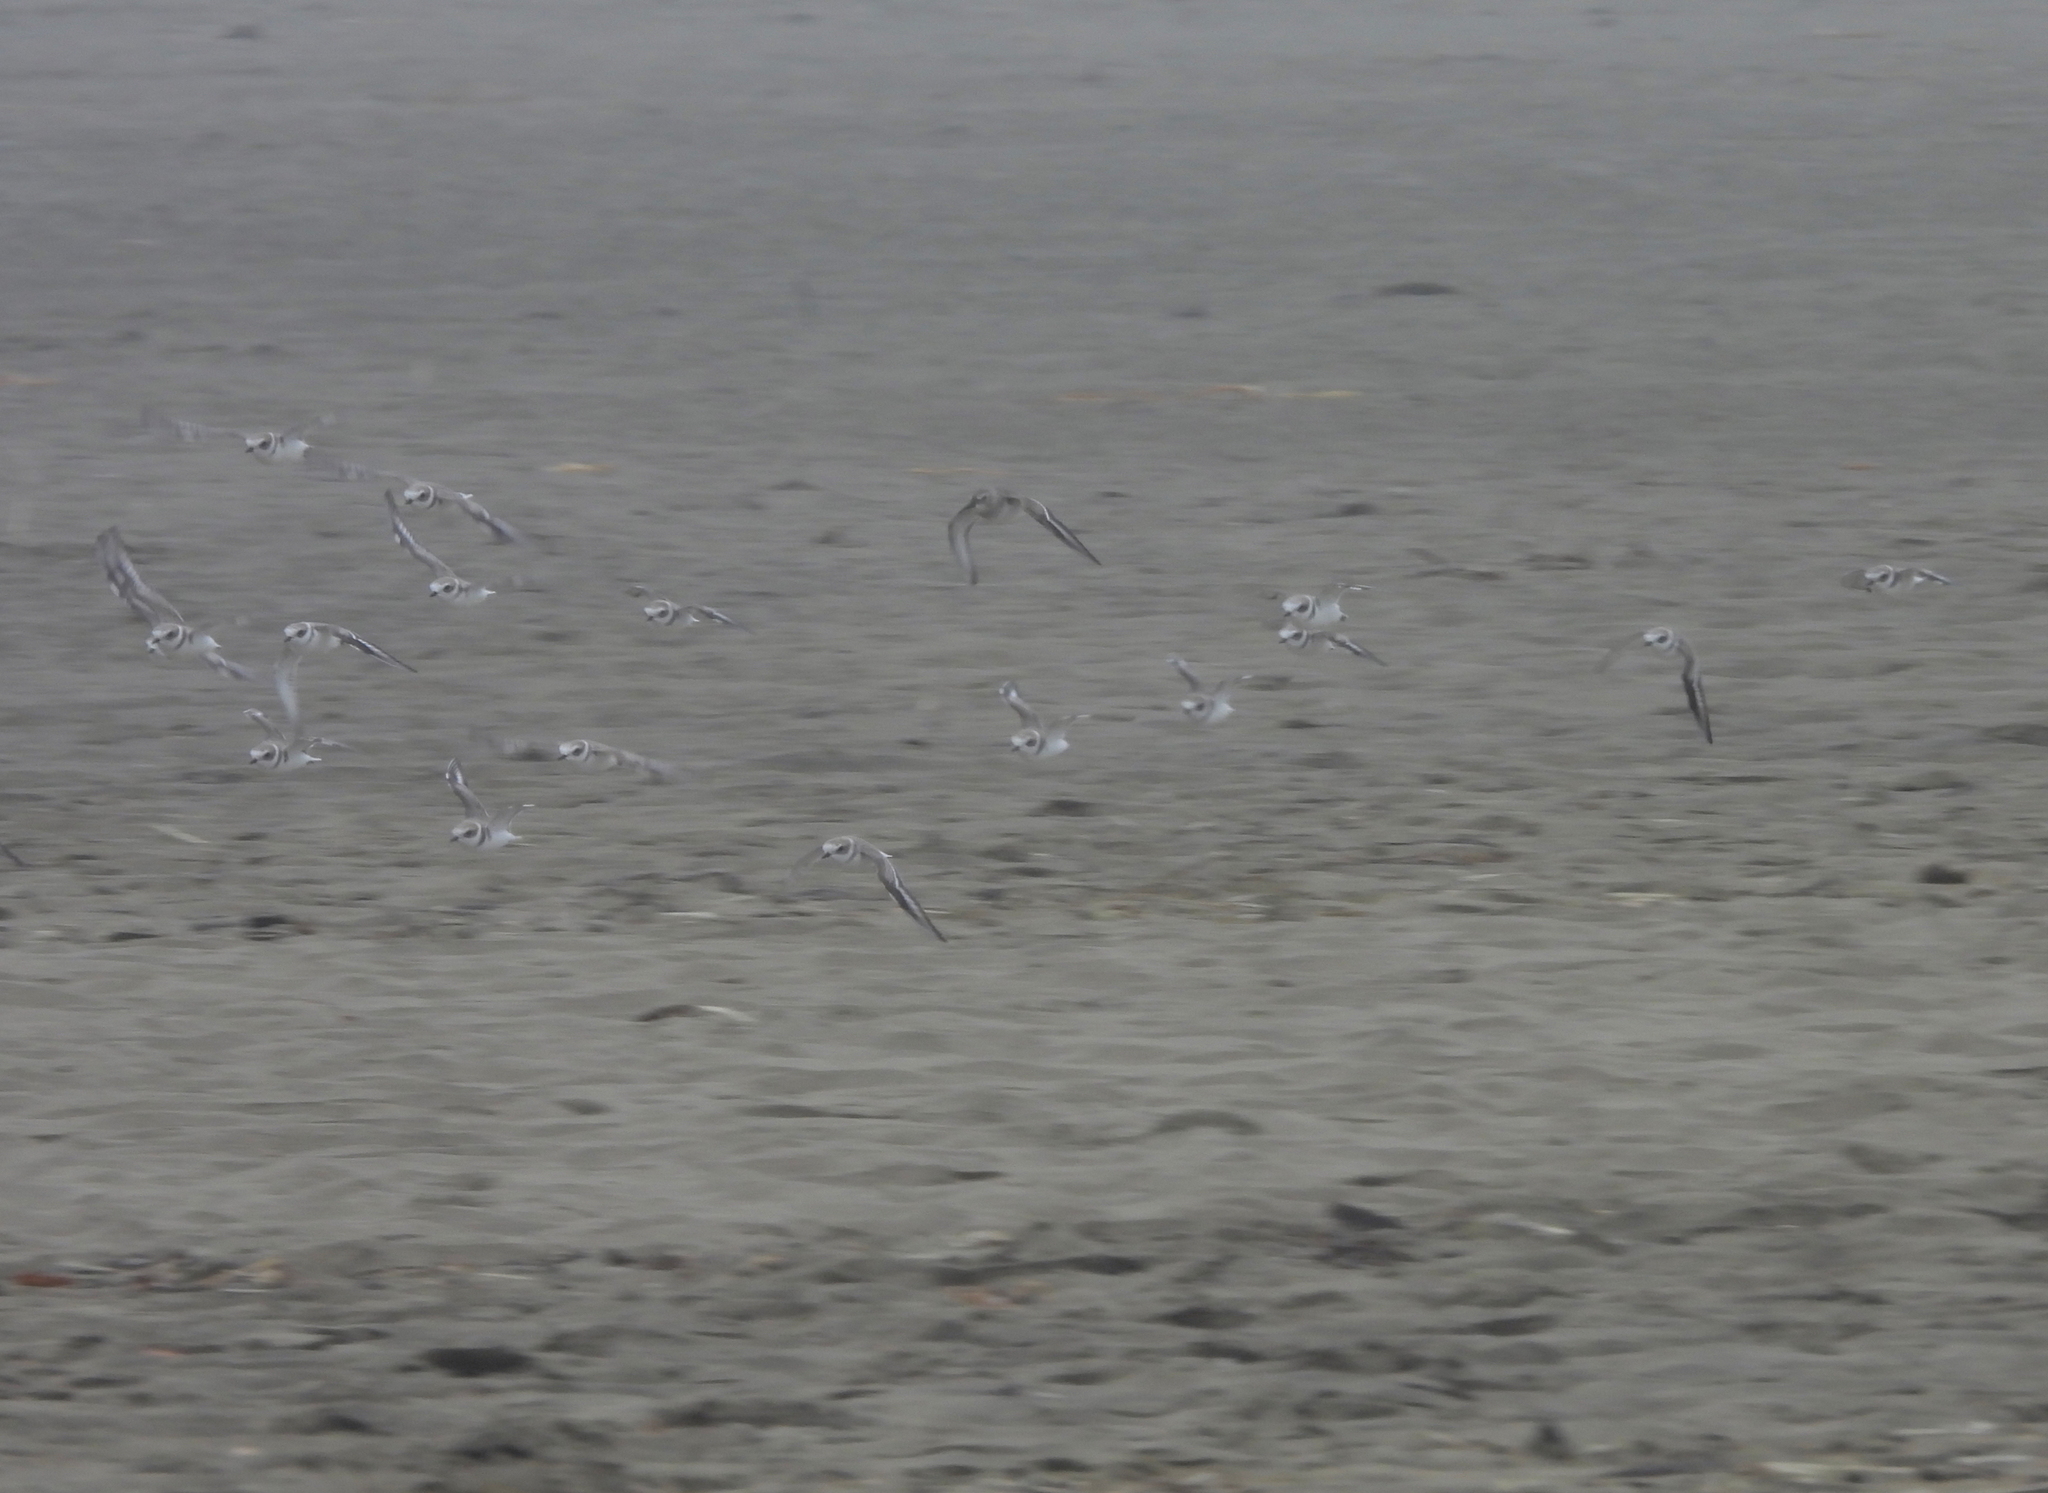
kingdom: Animalia
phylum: Chordata
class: Aves
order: Charadriiformes
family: Charadriidae
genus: Anarhynchus
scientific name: Anarhynchus
